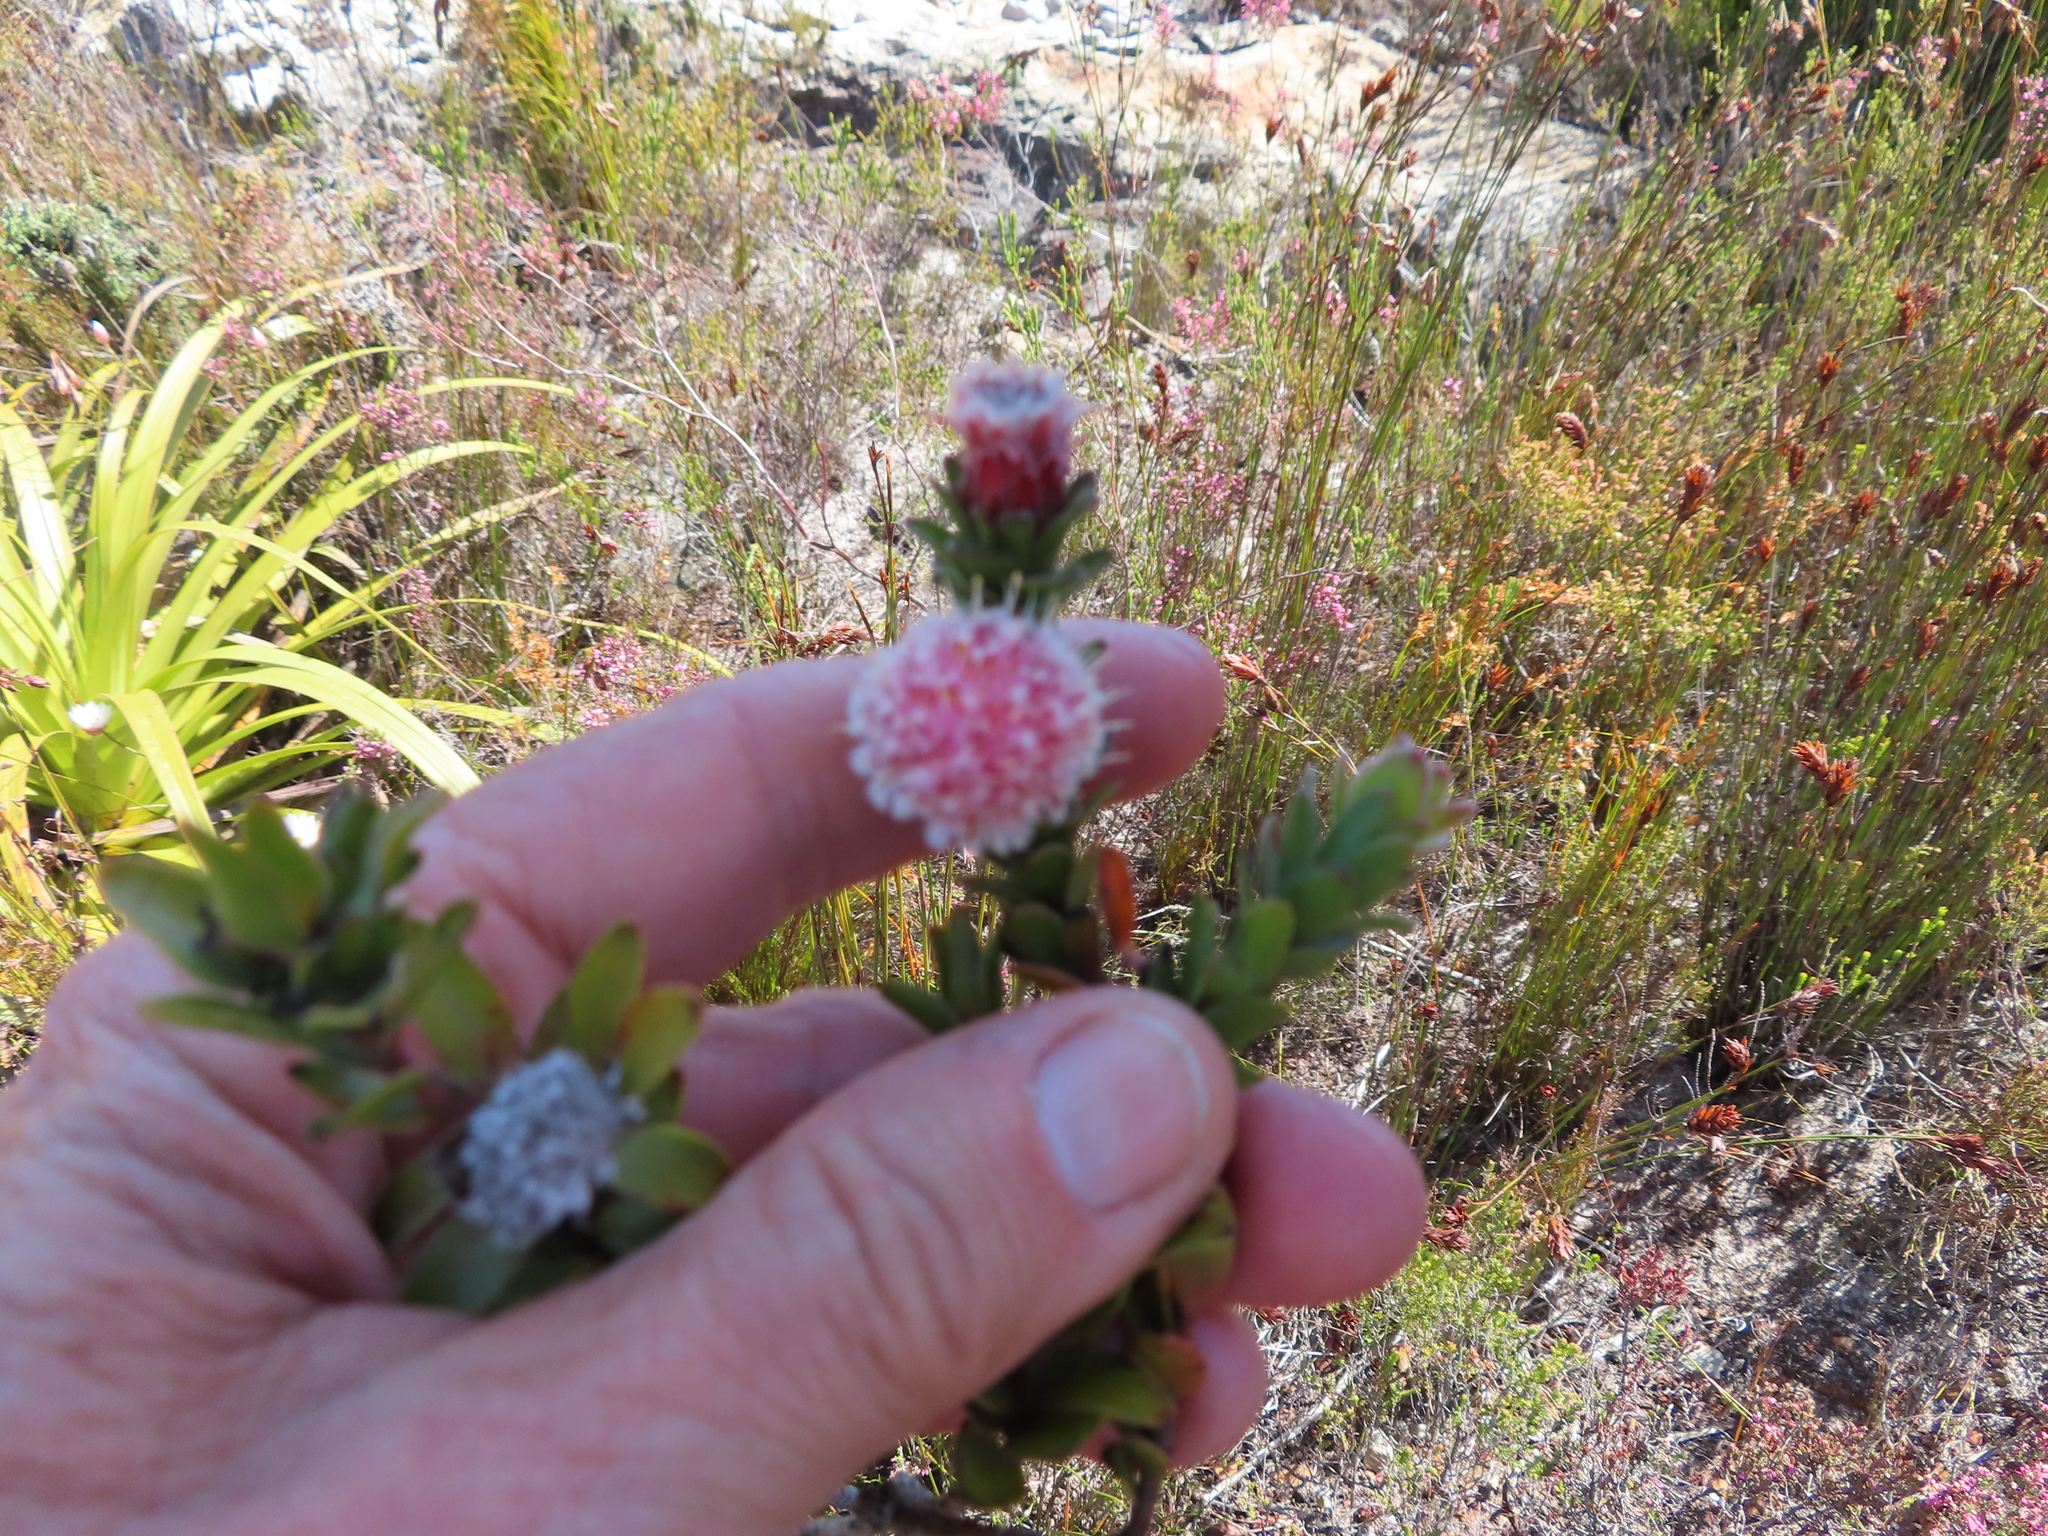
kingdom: Plantae
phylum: Tracheophyta
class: Magnoliopsida
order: Proteales
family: Proteaceae
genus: Diastella
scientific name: Diastella thymelaeoides
